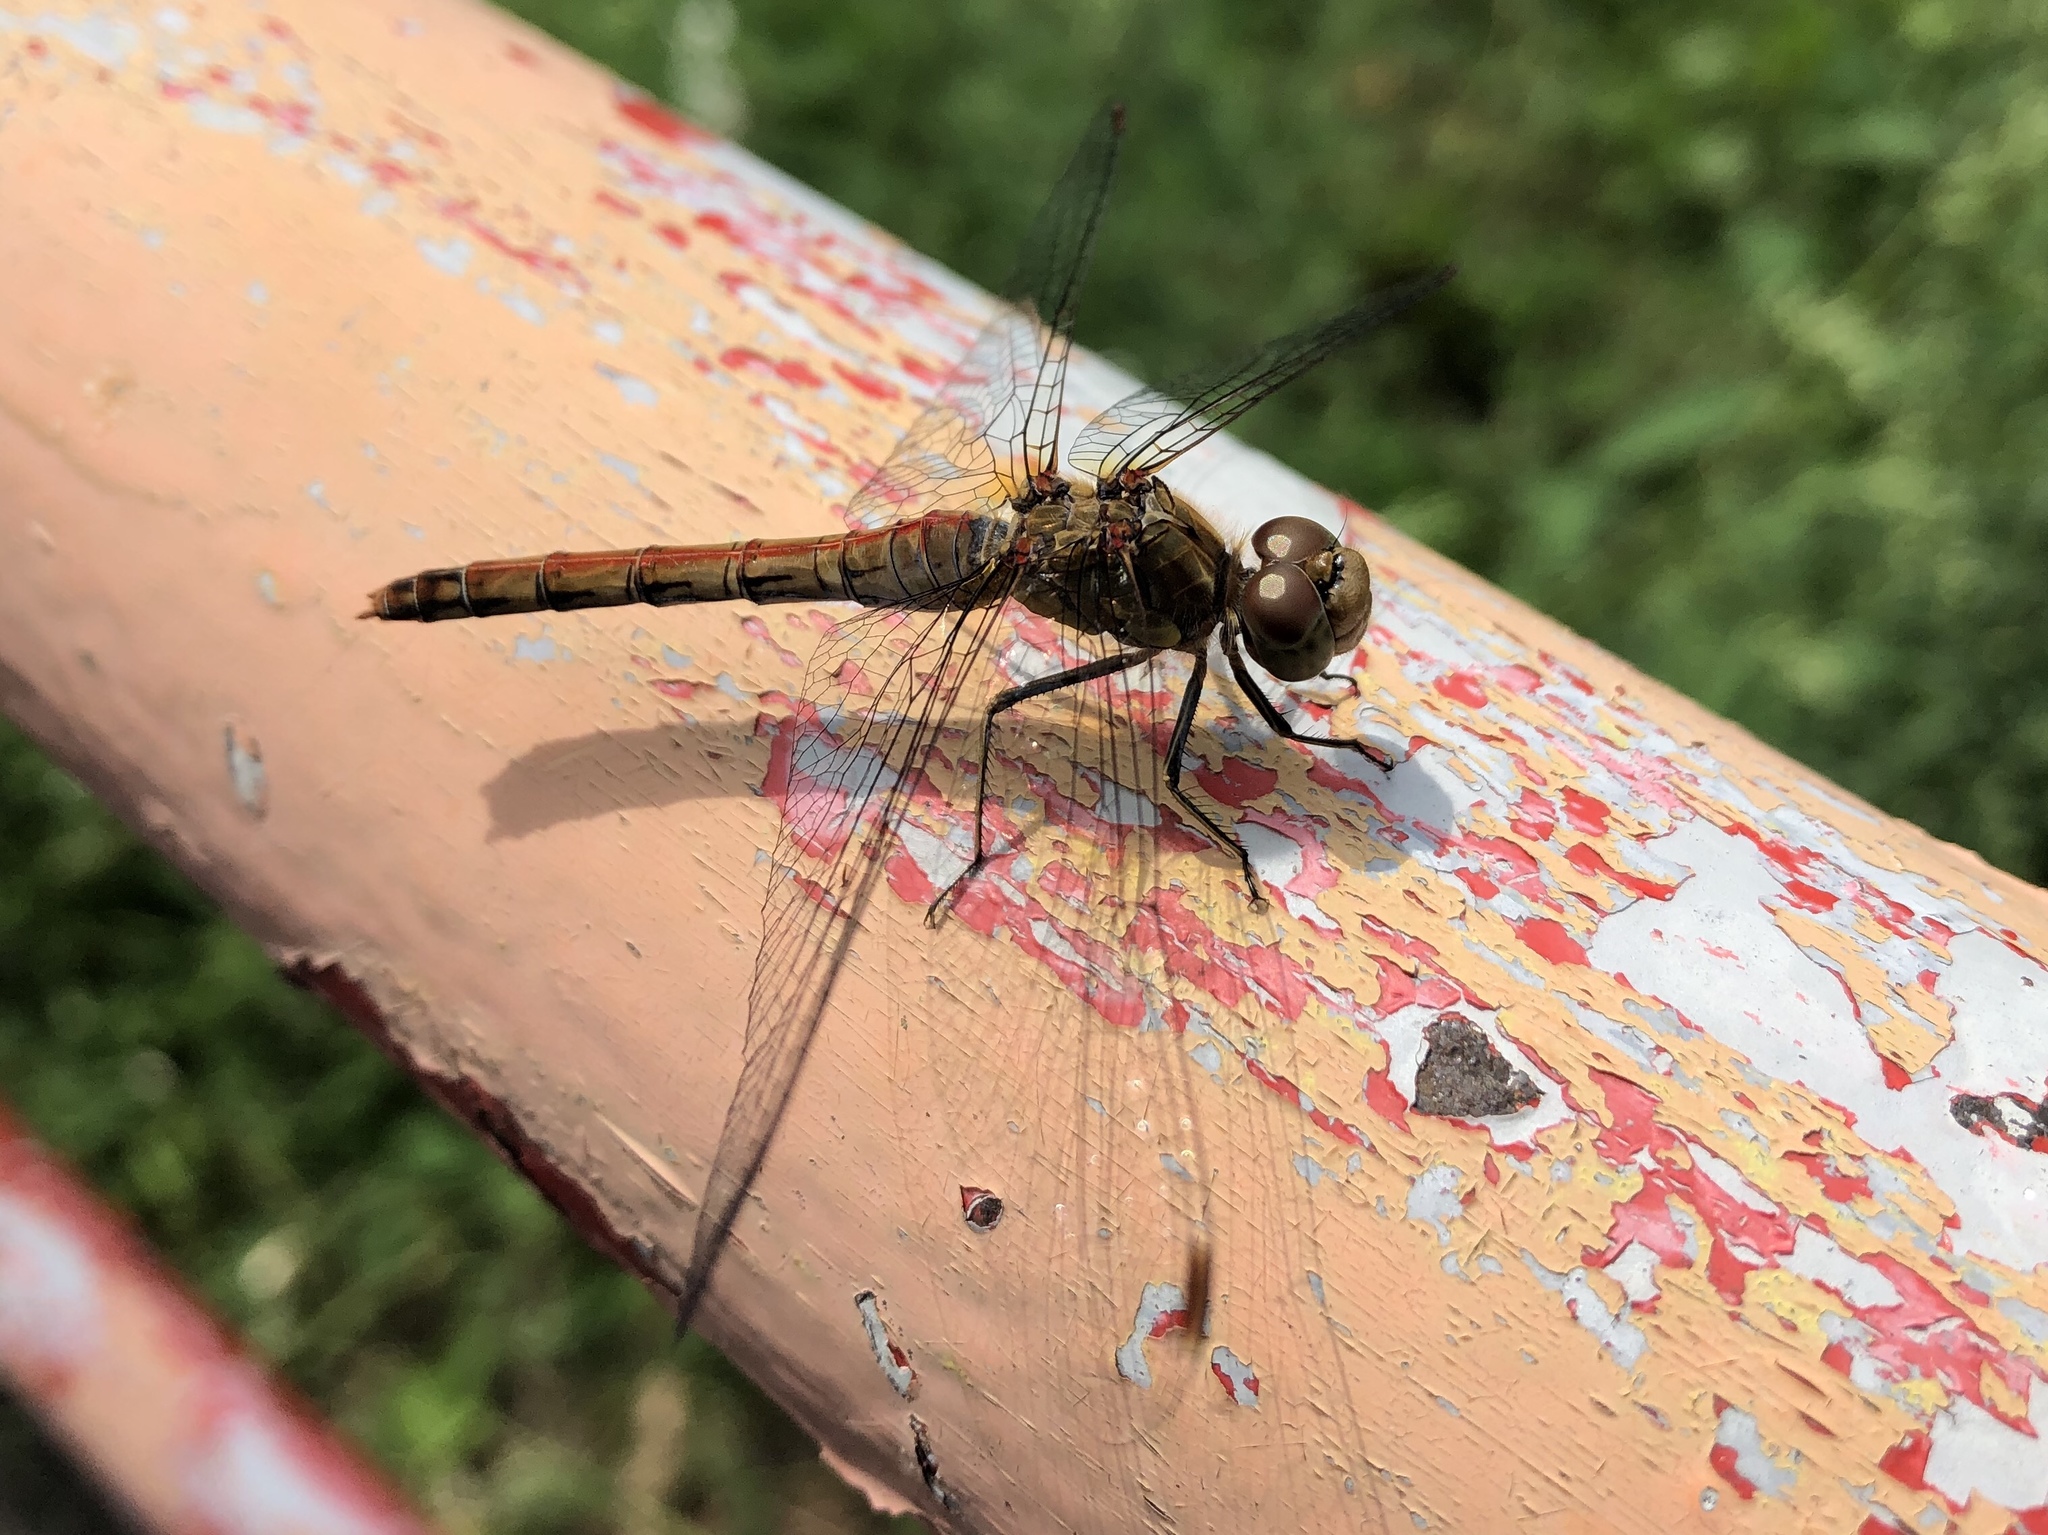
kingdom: Animalia
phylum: Arthropoda
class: Insecta
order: Odonata
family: Libellulidae
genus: Sympetrum
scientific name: Sympetrum striolatum
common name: Common darter
